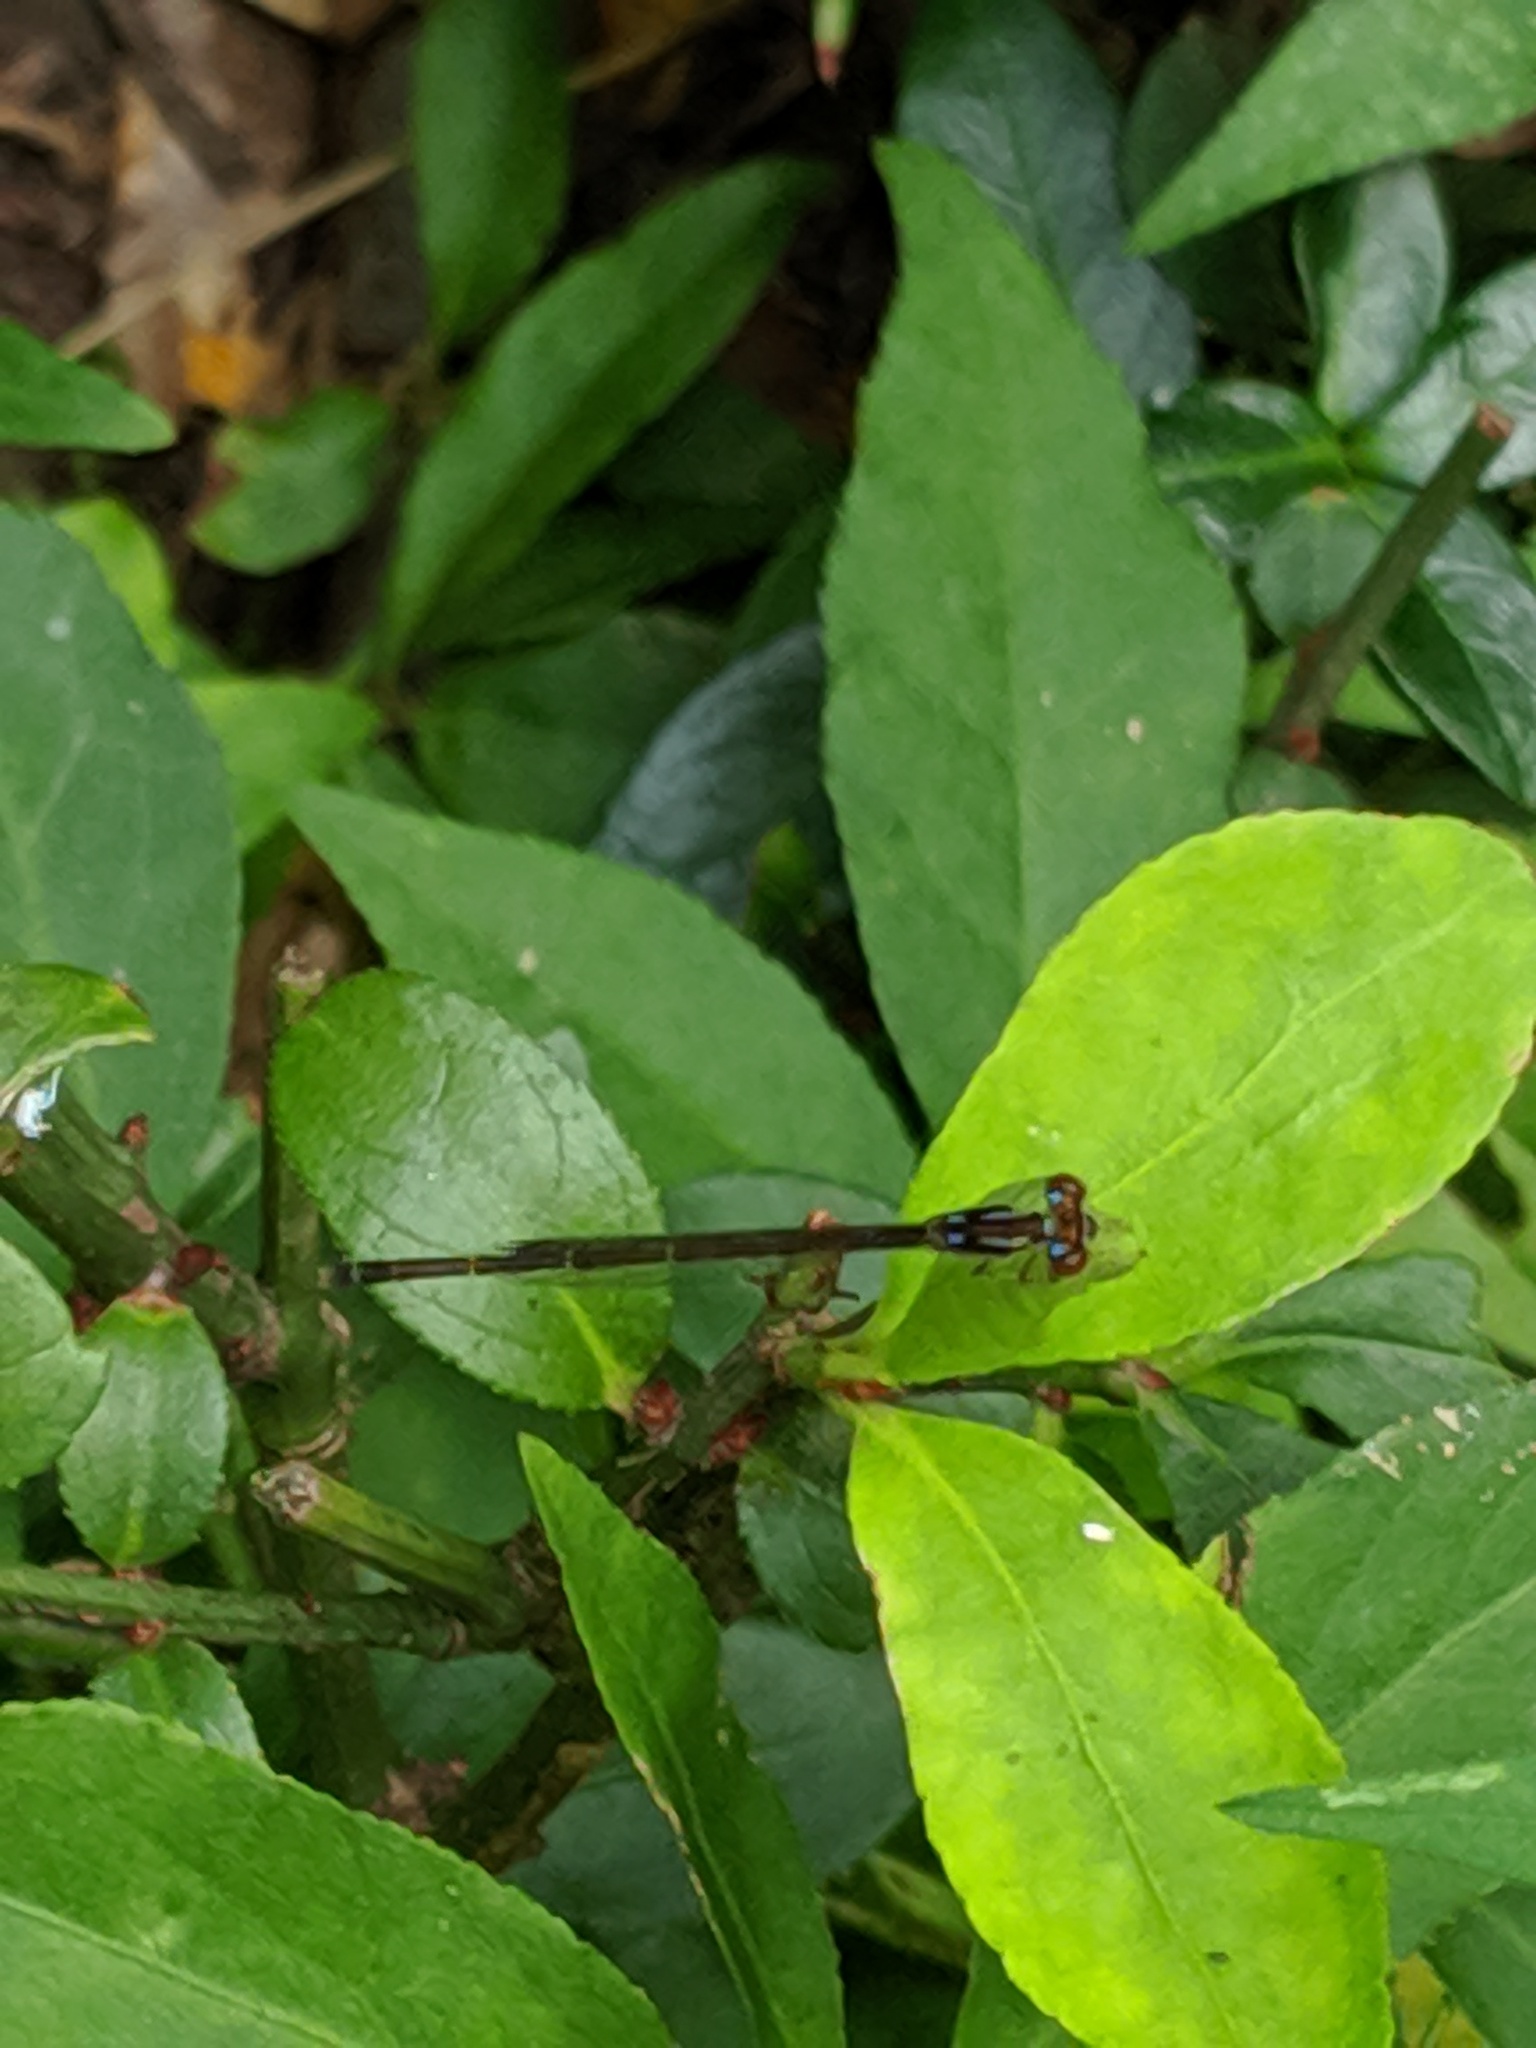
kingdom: Animalia
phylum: Arthropoda
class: Insecta
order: Odonata
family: Coenagrionidae
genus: Ischnura
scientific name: Ischnura posita
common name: Fragile forktail
